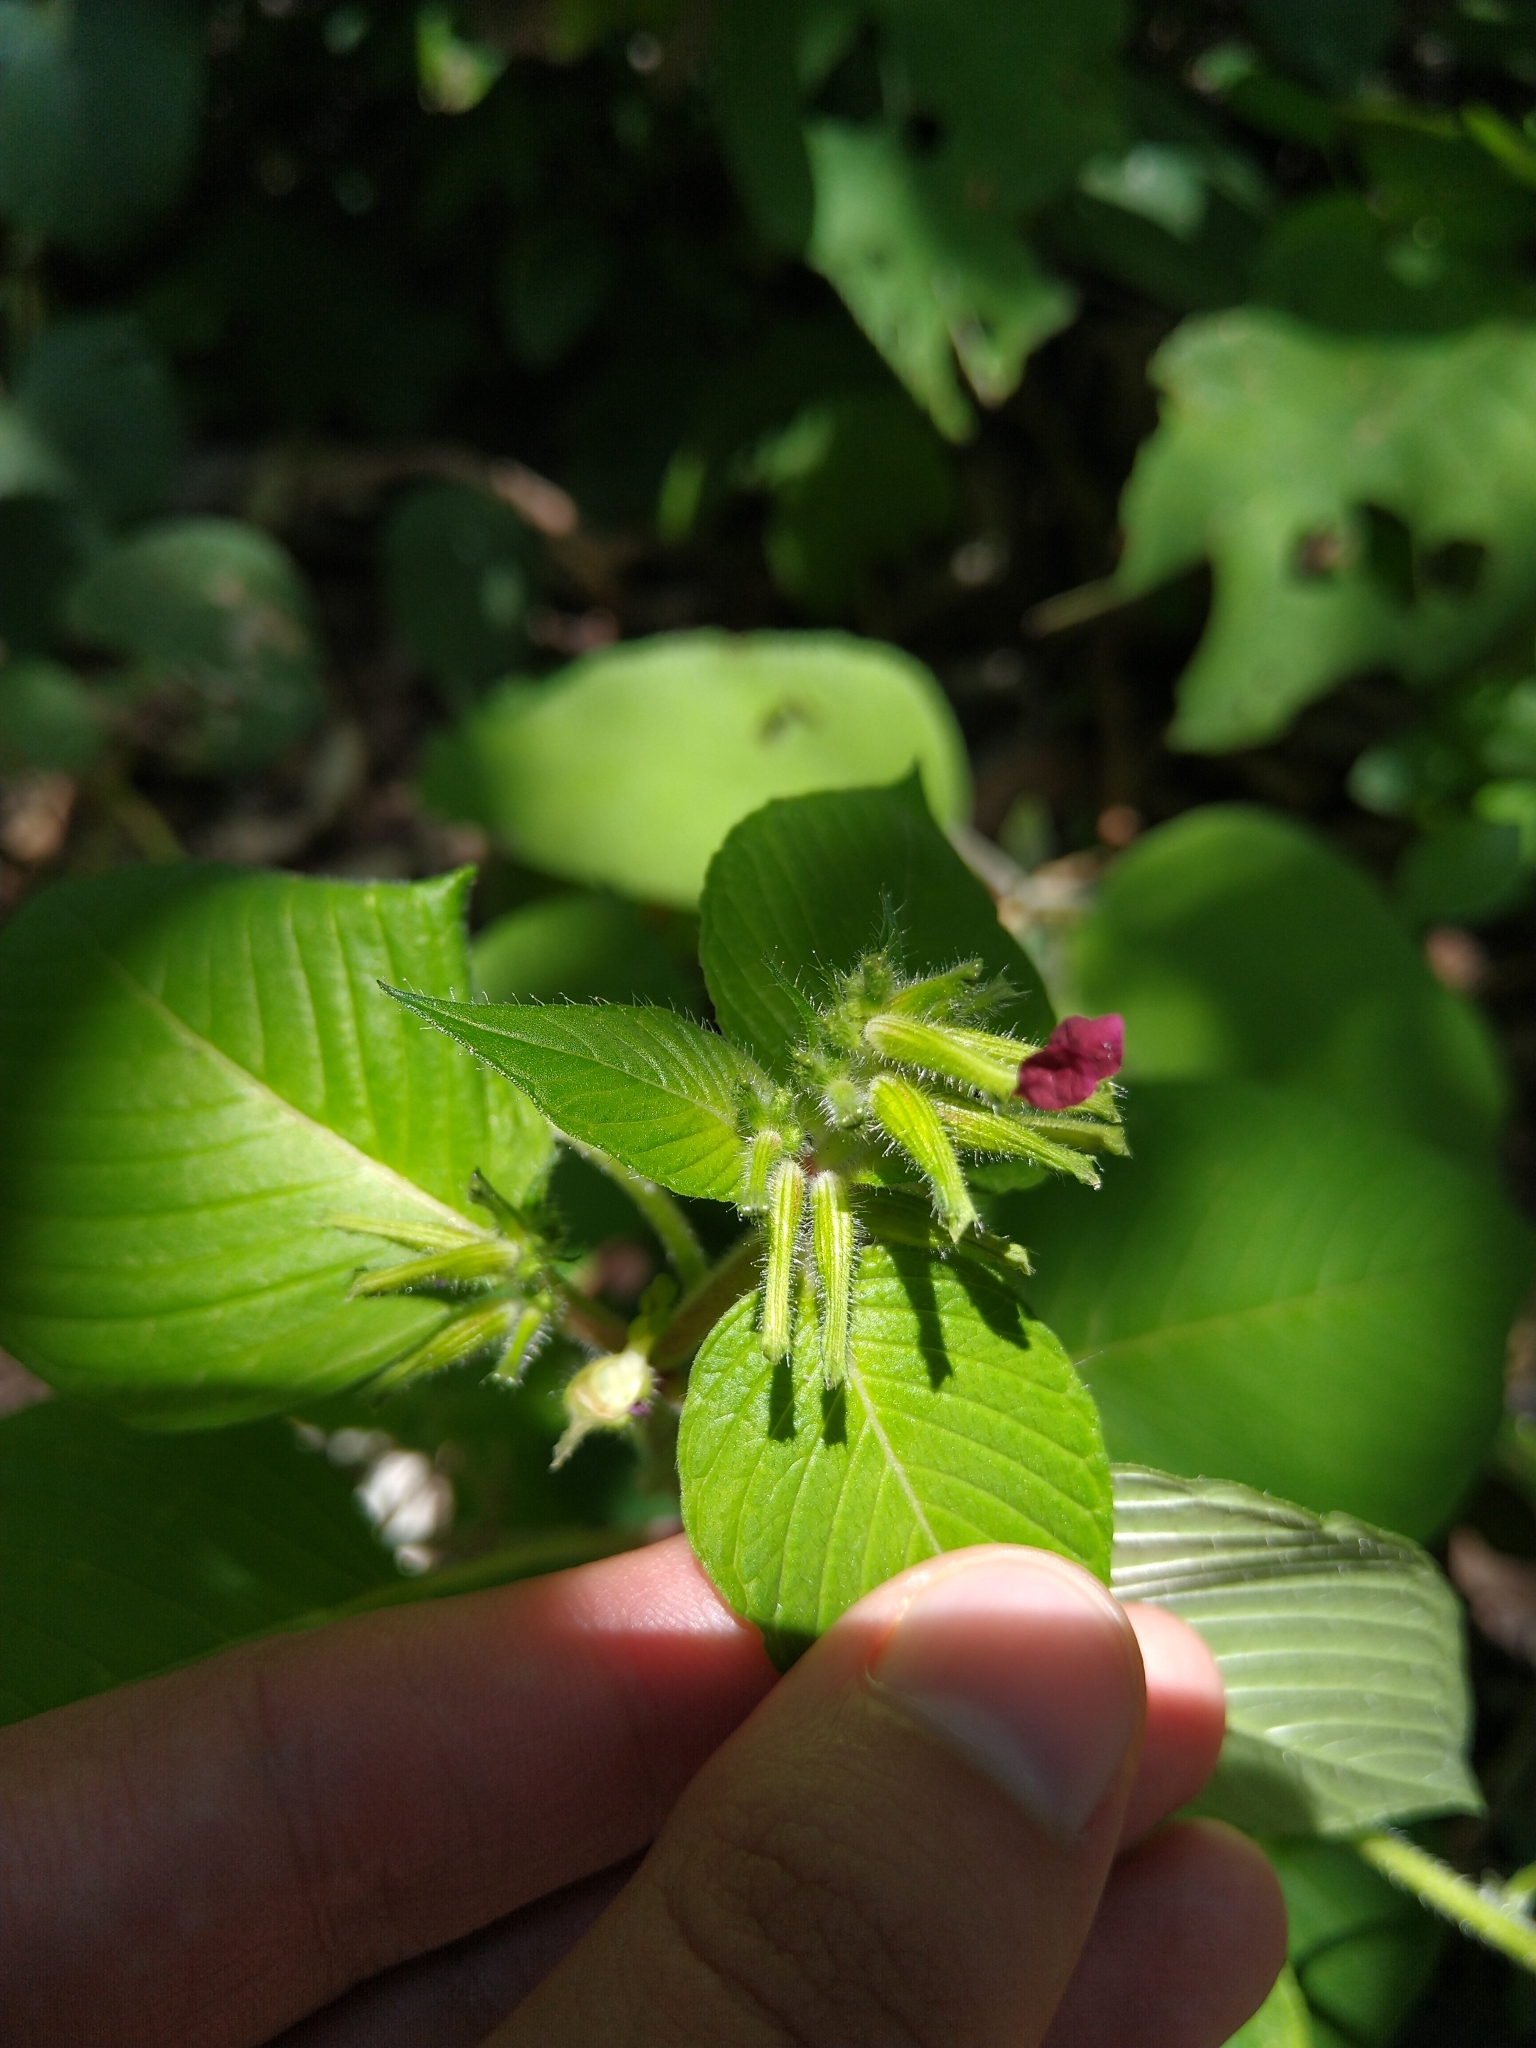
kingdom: Plantae
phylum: Tracheophyta
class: Magnoliopsida
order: Myrtales
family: Lythraceae
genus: Cuphea
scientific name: Cuphea paucipetala
